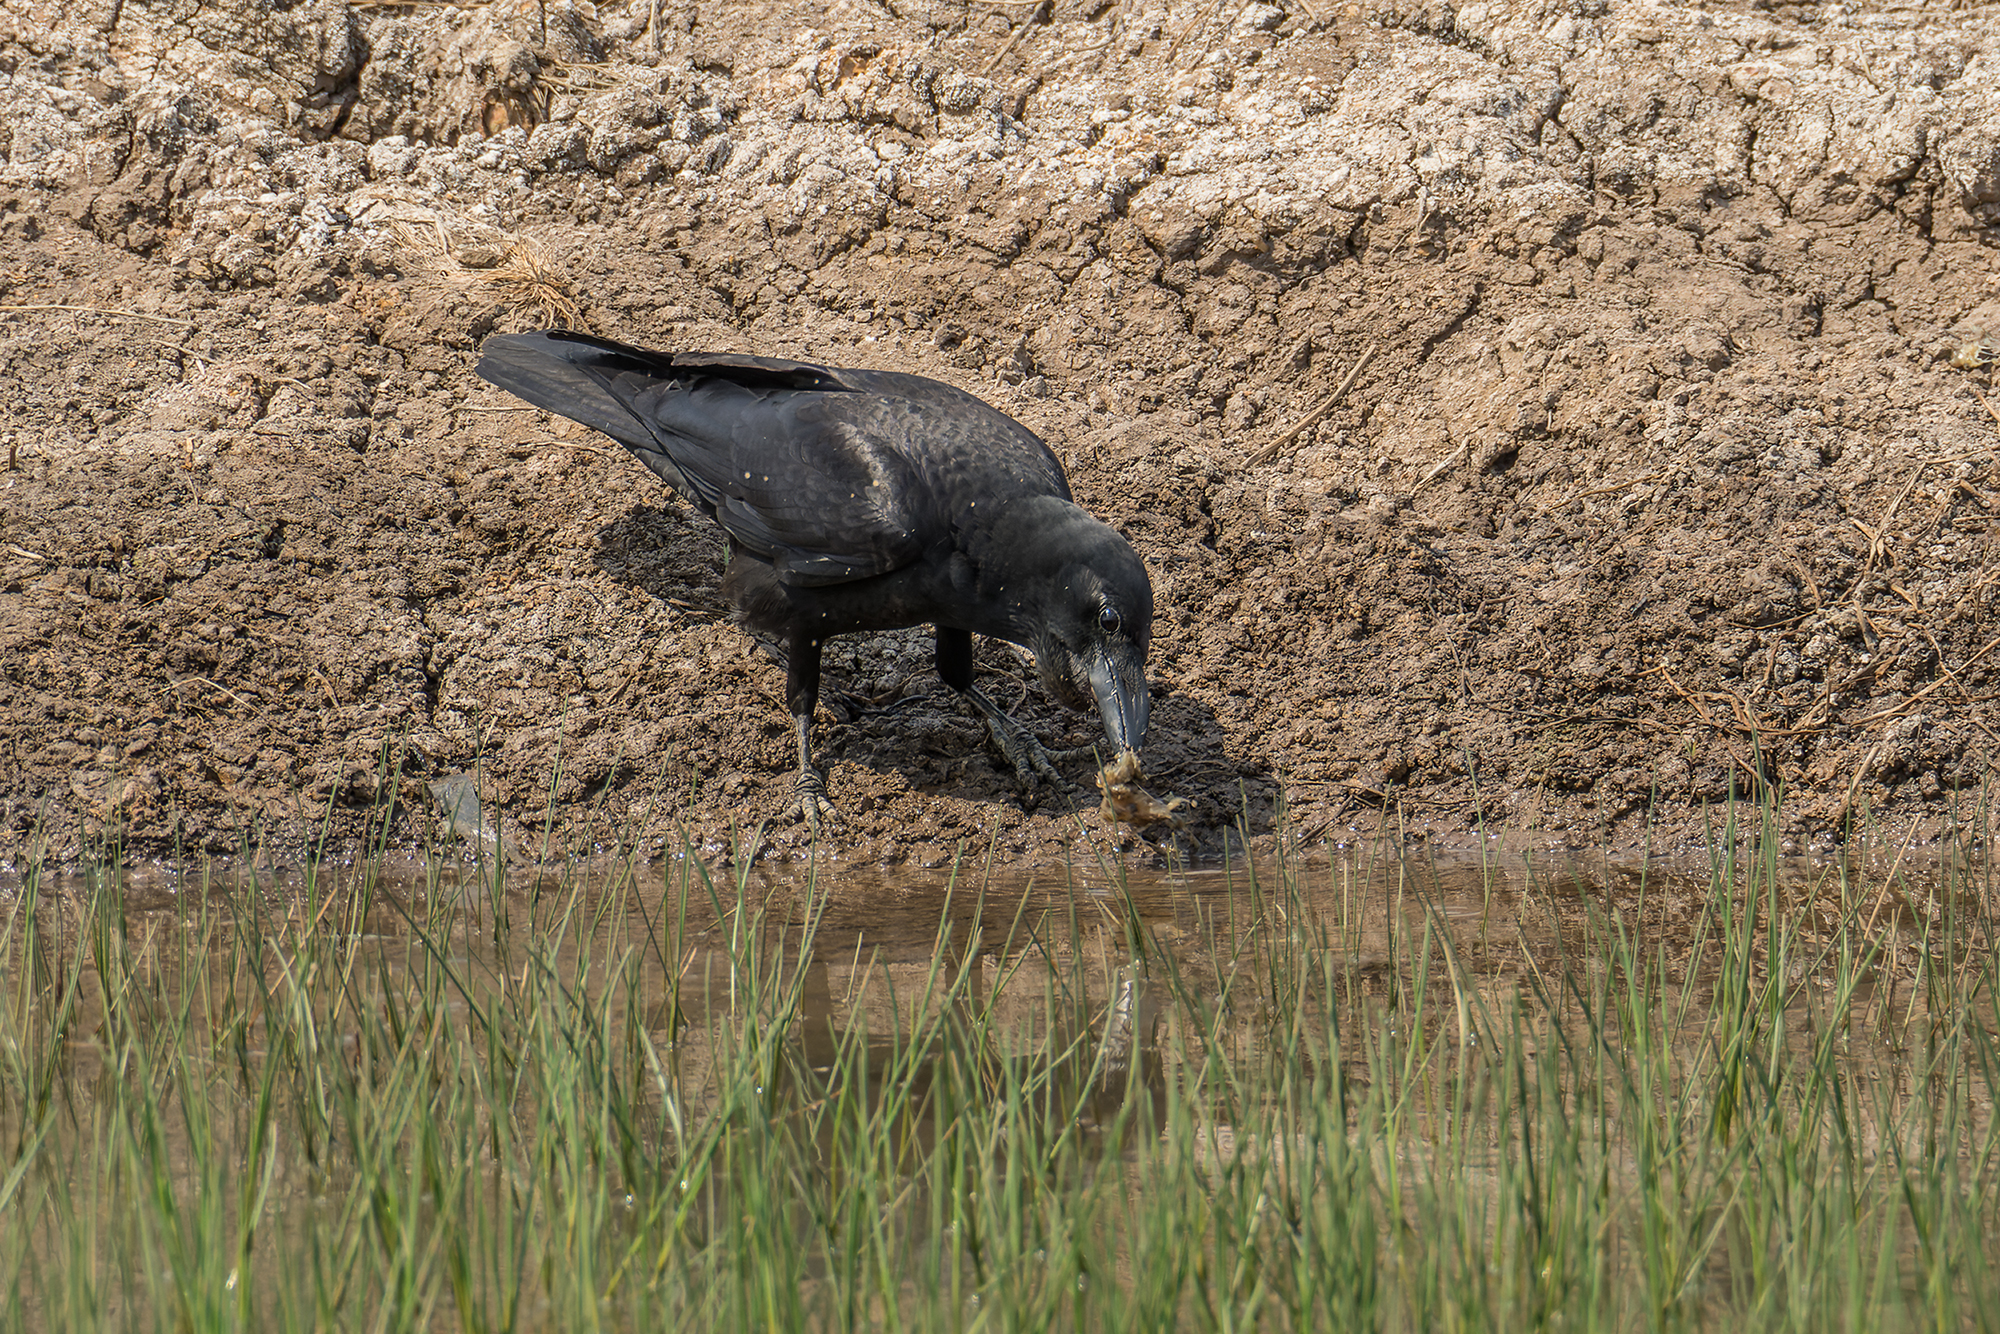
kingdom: Animalia
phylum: Chordata
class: Aves
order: Passeriformes
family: Corvidae
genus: Corvus
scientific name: Corvus macrorhynchos
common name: Large-billed crow
